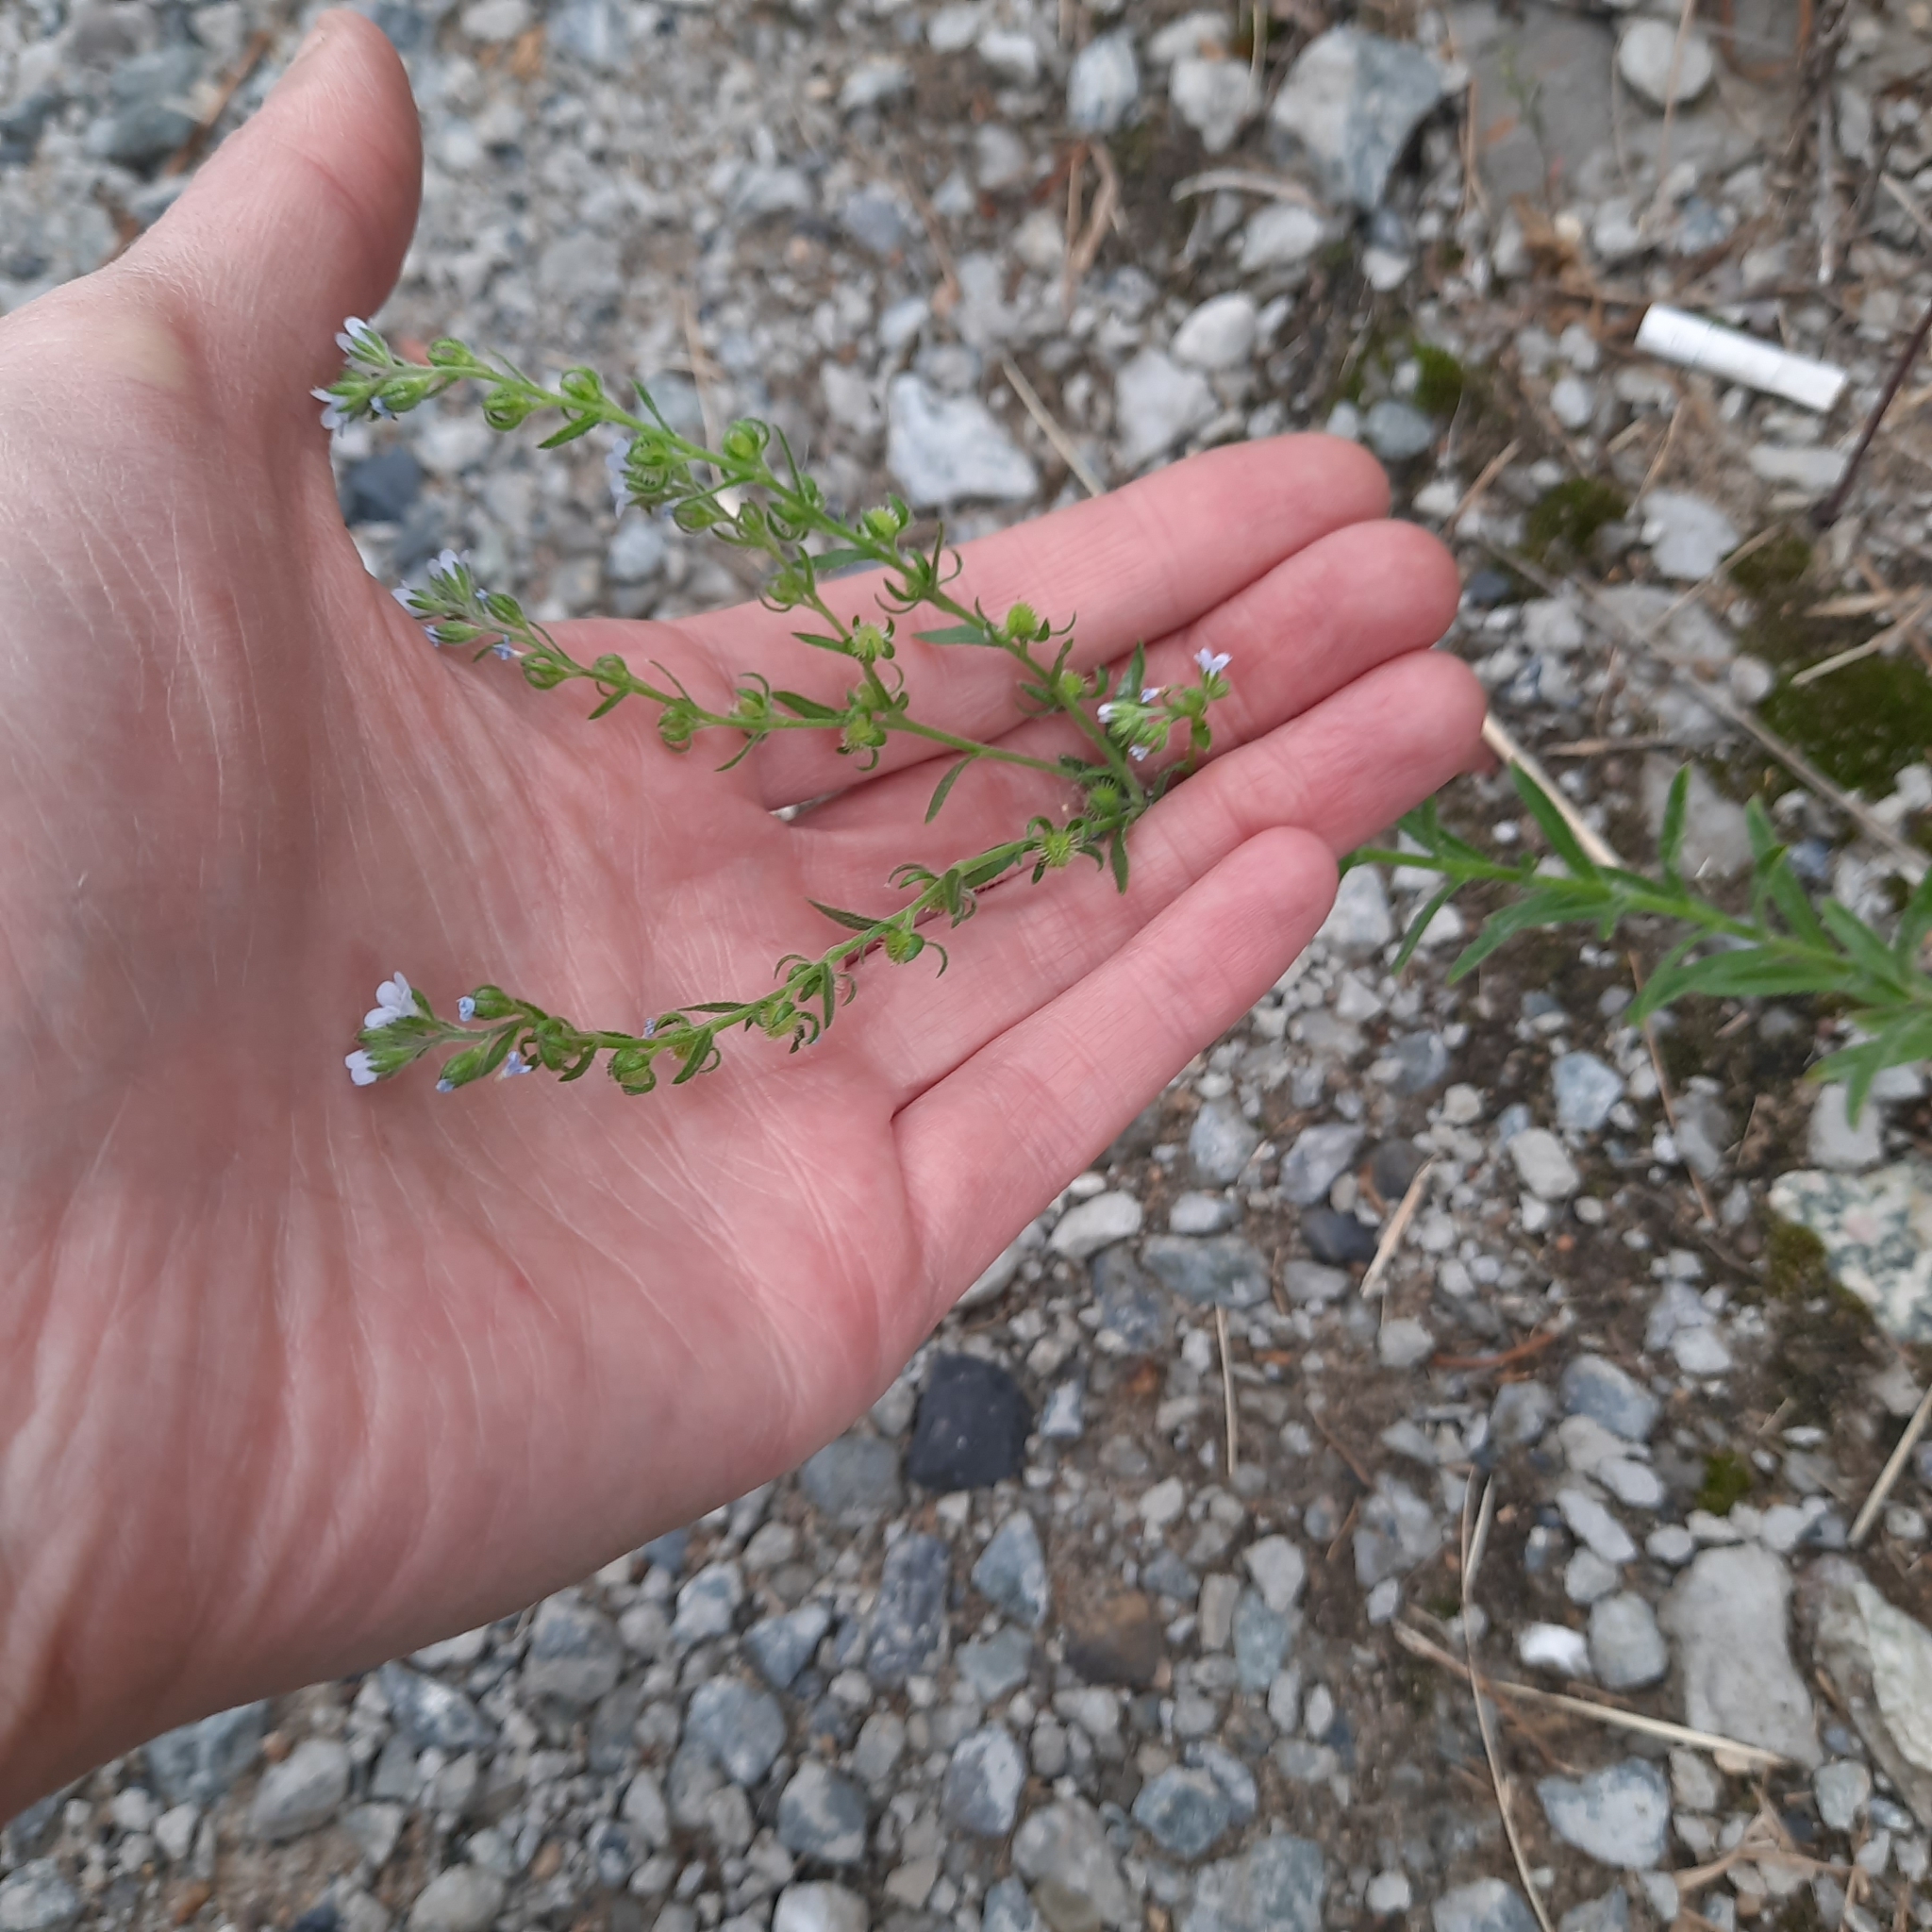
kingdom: Plantae
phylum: Tracheophyta
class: Magnoliopsida
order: Boraginales
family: Boraginaceae
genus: Lappula
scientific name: Lappula squarrosa
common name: European stickseed
